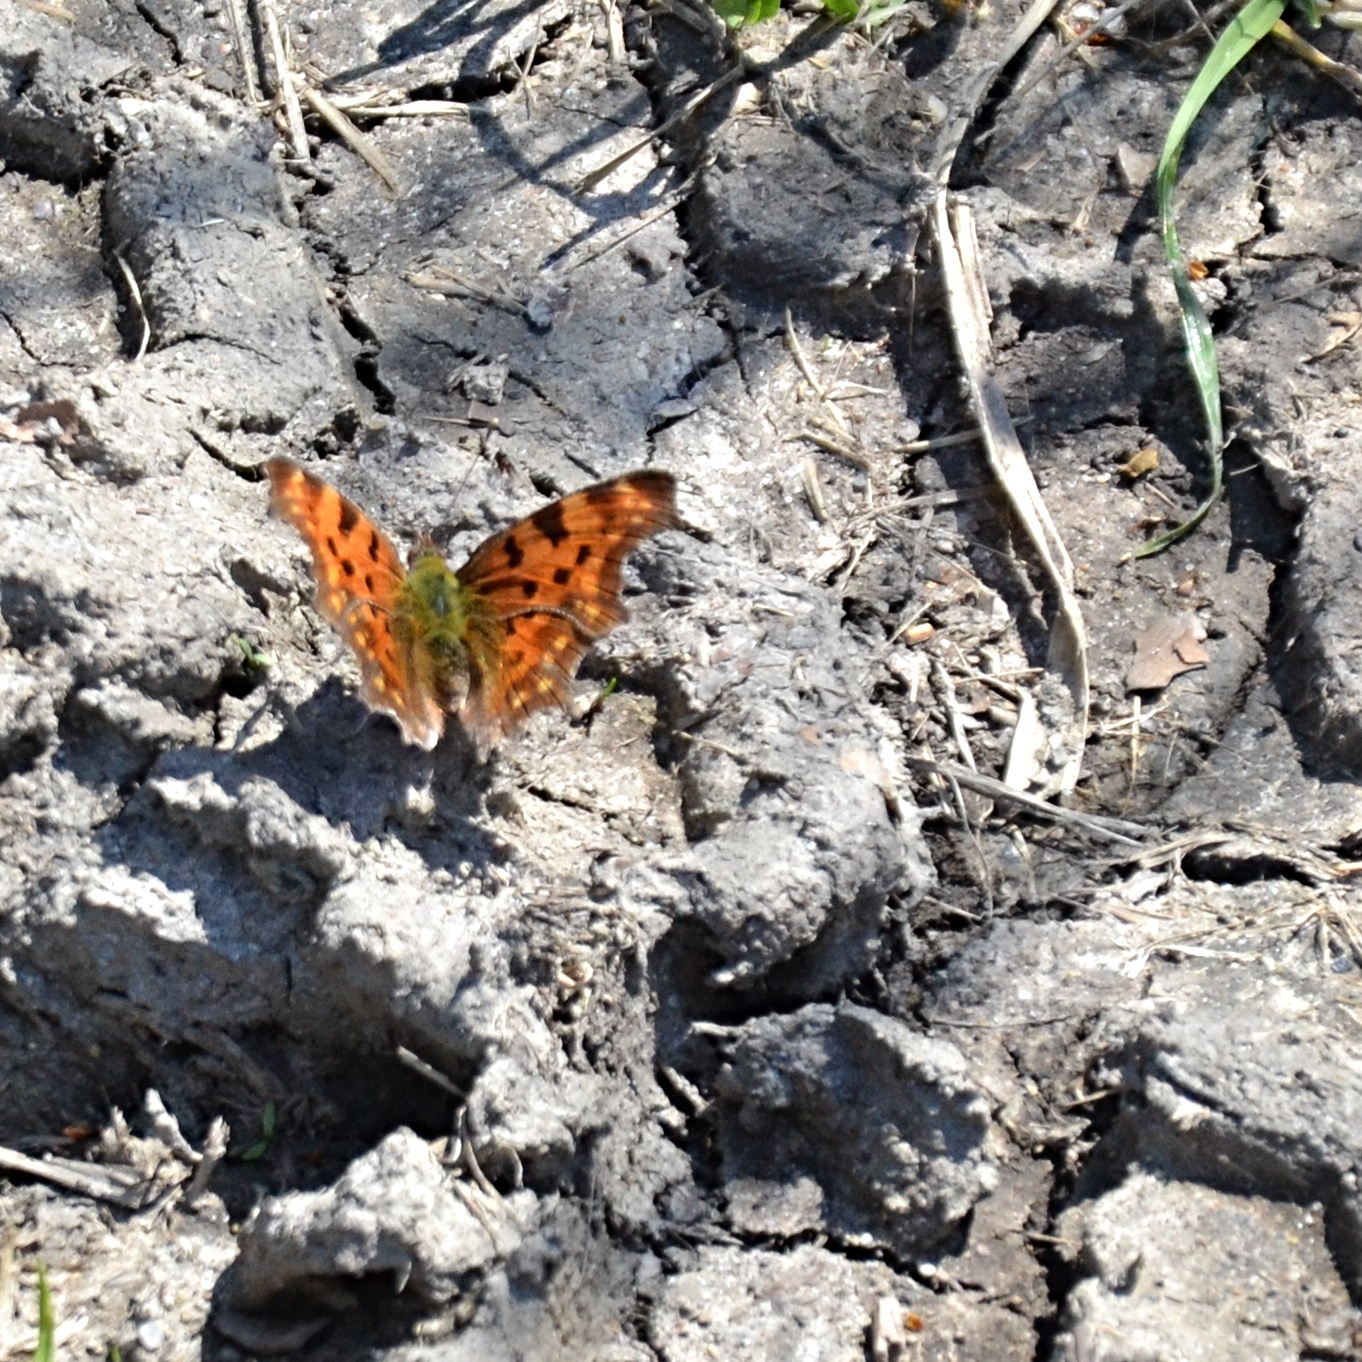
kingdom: Animalia
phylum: Arthropoda
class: Insecta
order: Lepidoptera
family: Nymphalidae
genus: Polygonia
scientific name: Polygonia c-album
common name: Comma
